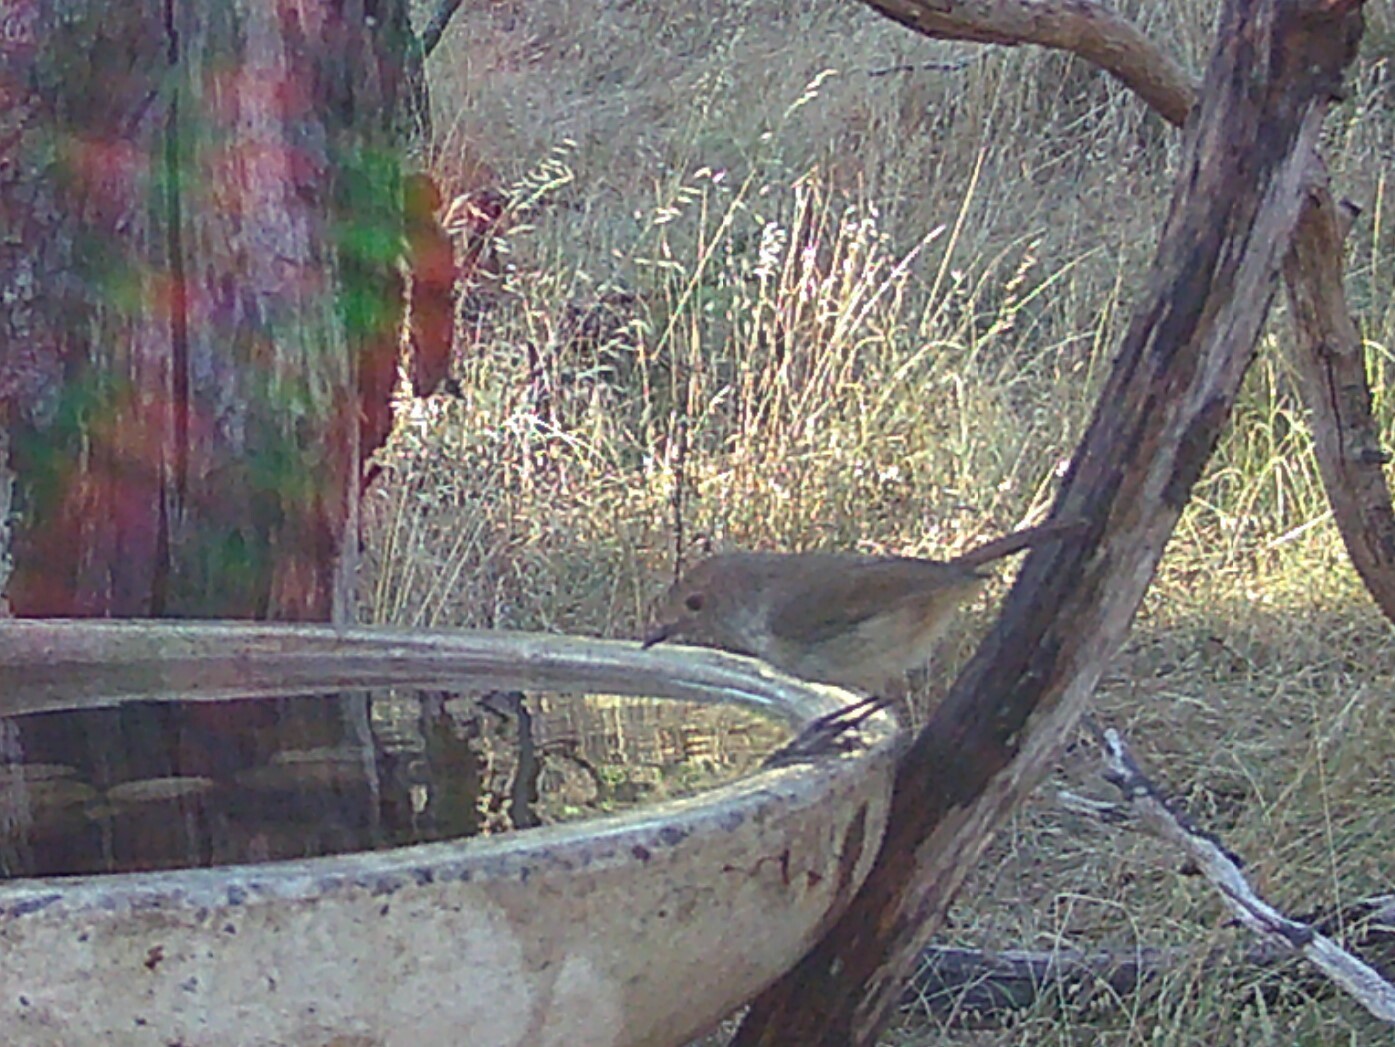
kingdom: Animalia
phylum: Chordata
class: Aves
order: Passeriformes
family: Acanthizidae
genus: Acanthiza
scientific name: Acanthiza pusilla
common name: Brown thornbill
